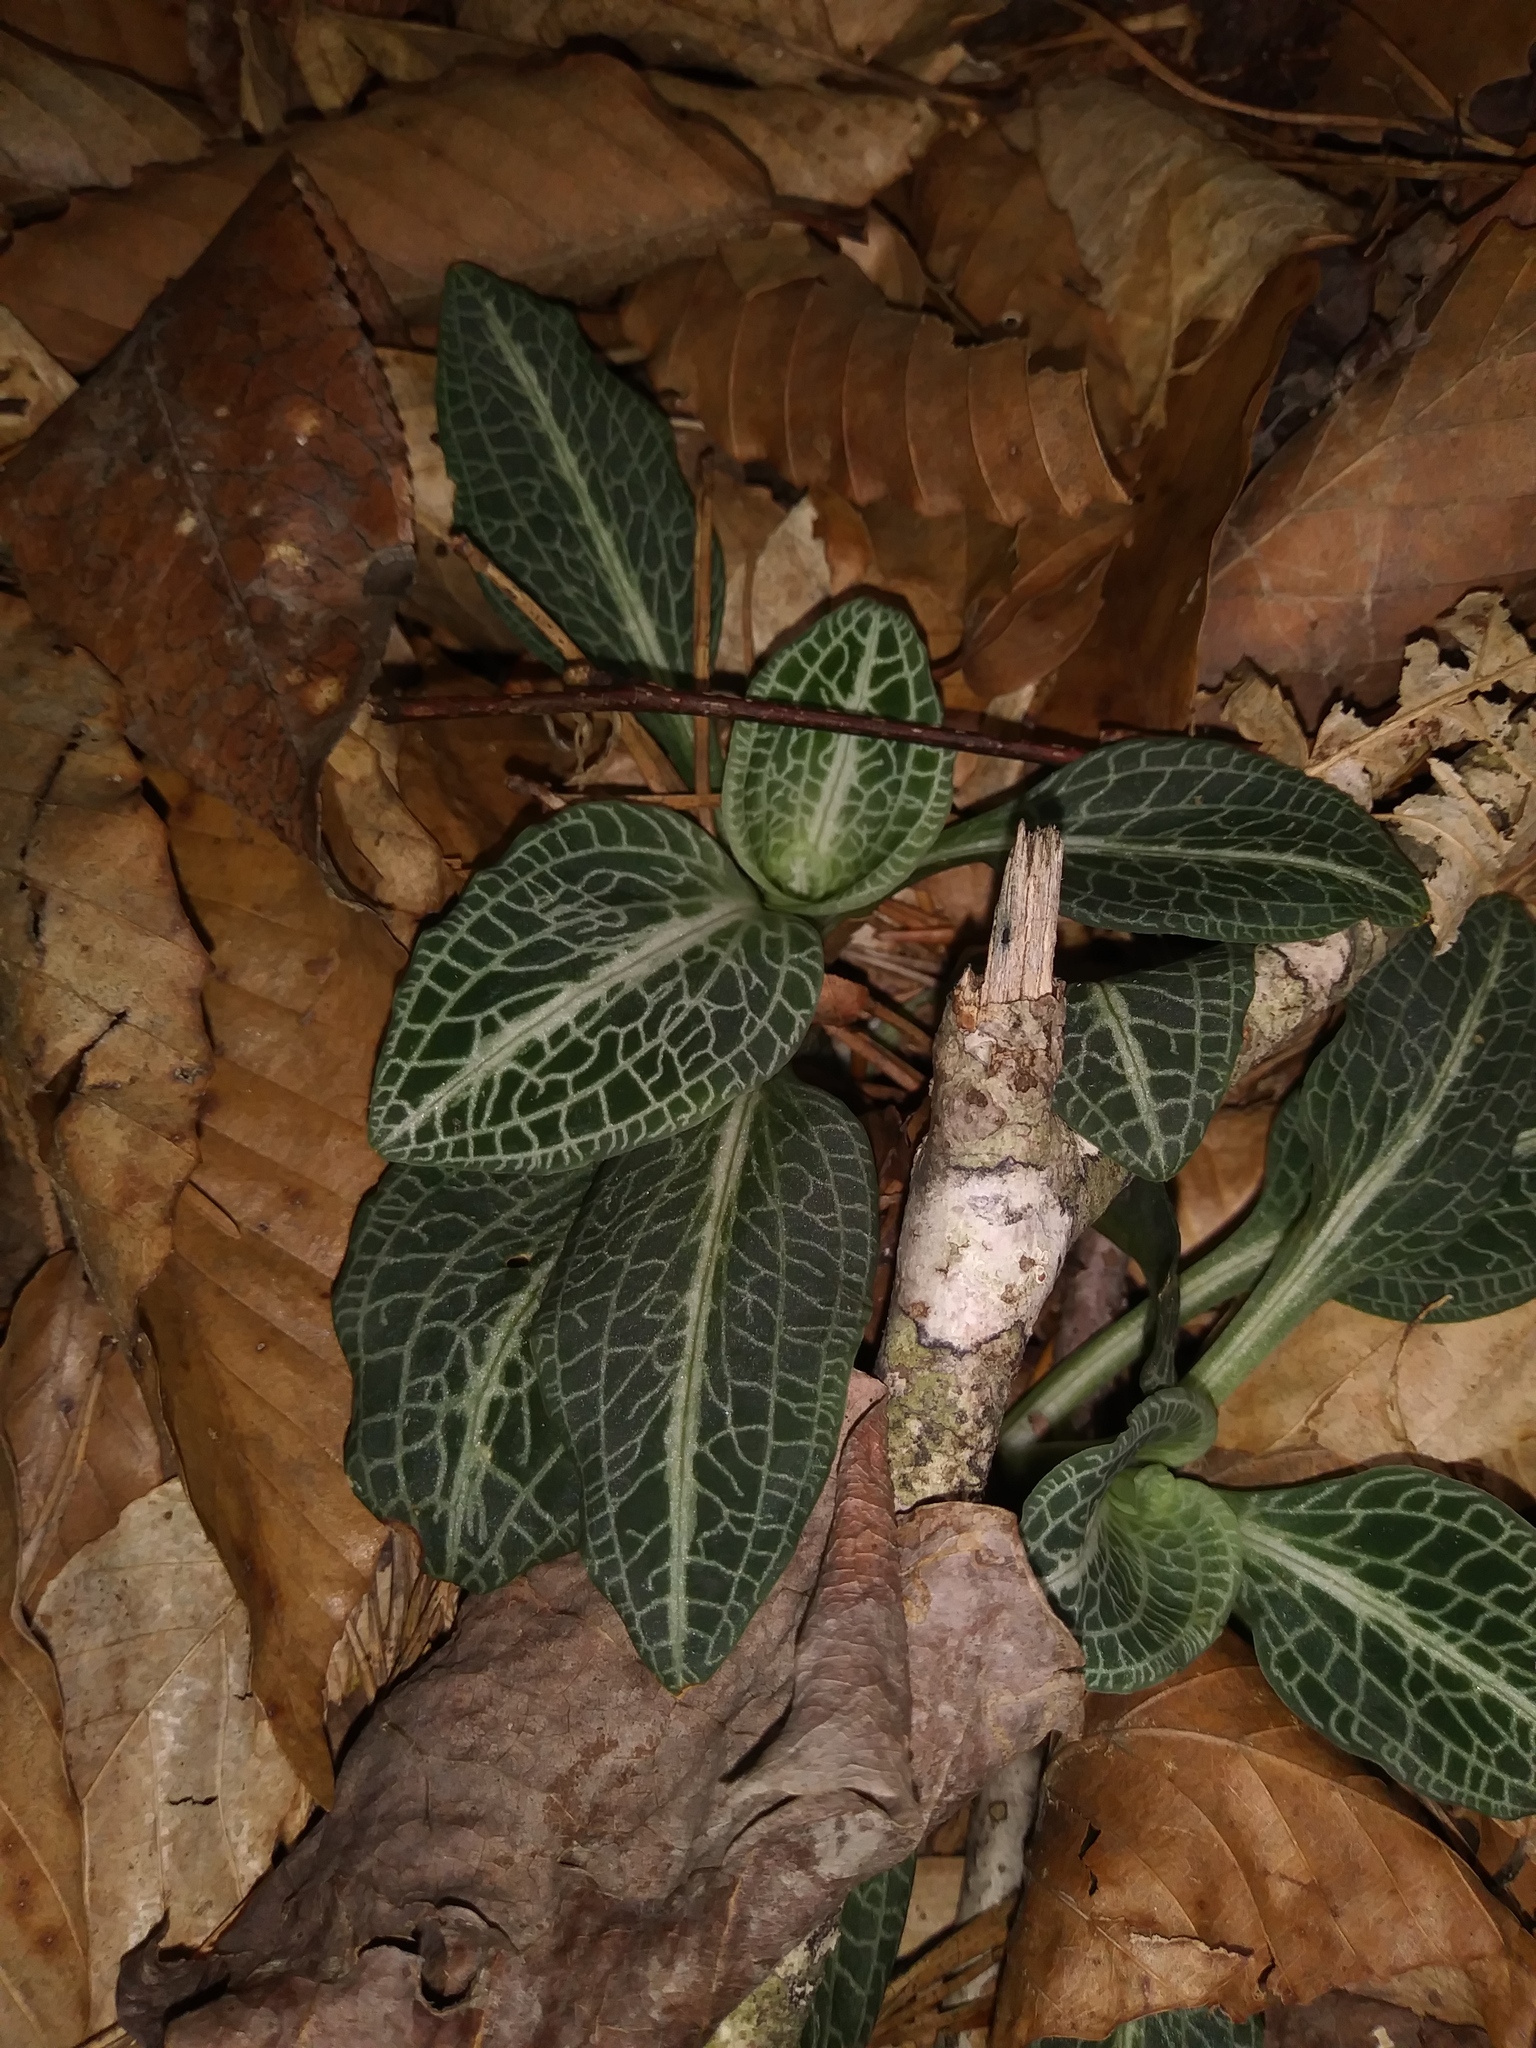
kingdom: Plantae
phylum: Tracheophyta
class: Liliopsida
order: Asparagales
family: Orchidaceae
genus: Goodyera
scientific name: Goodyera pubescens
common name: Downy rattlesnake-plantain
